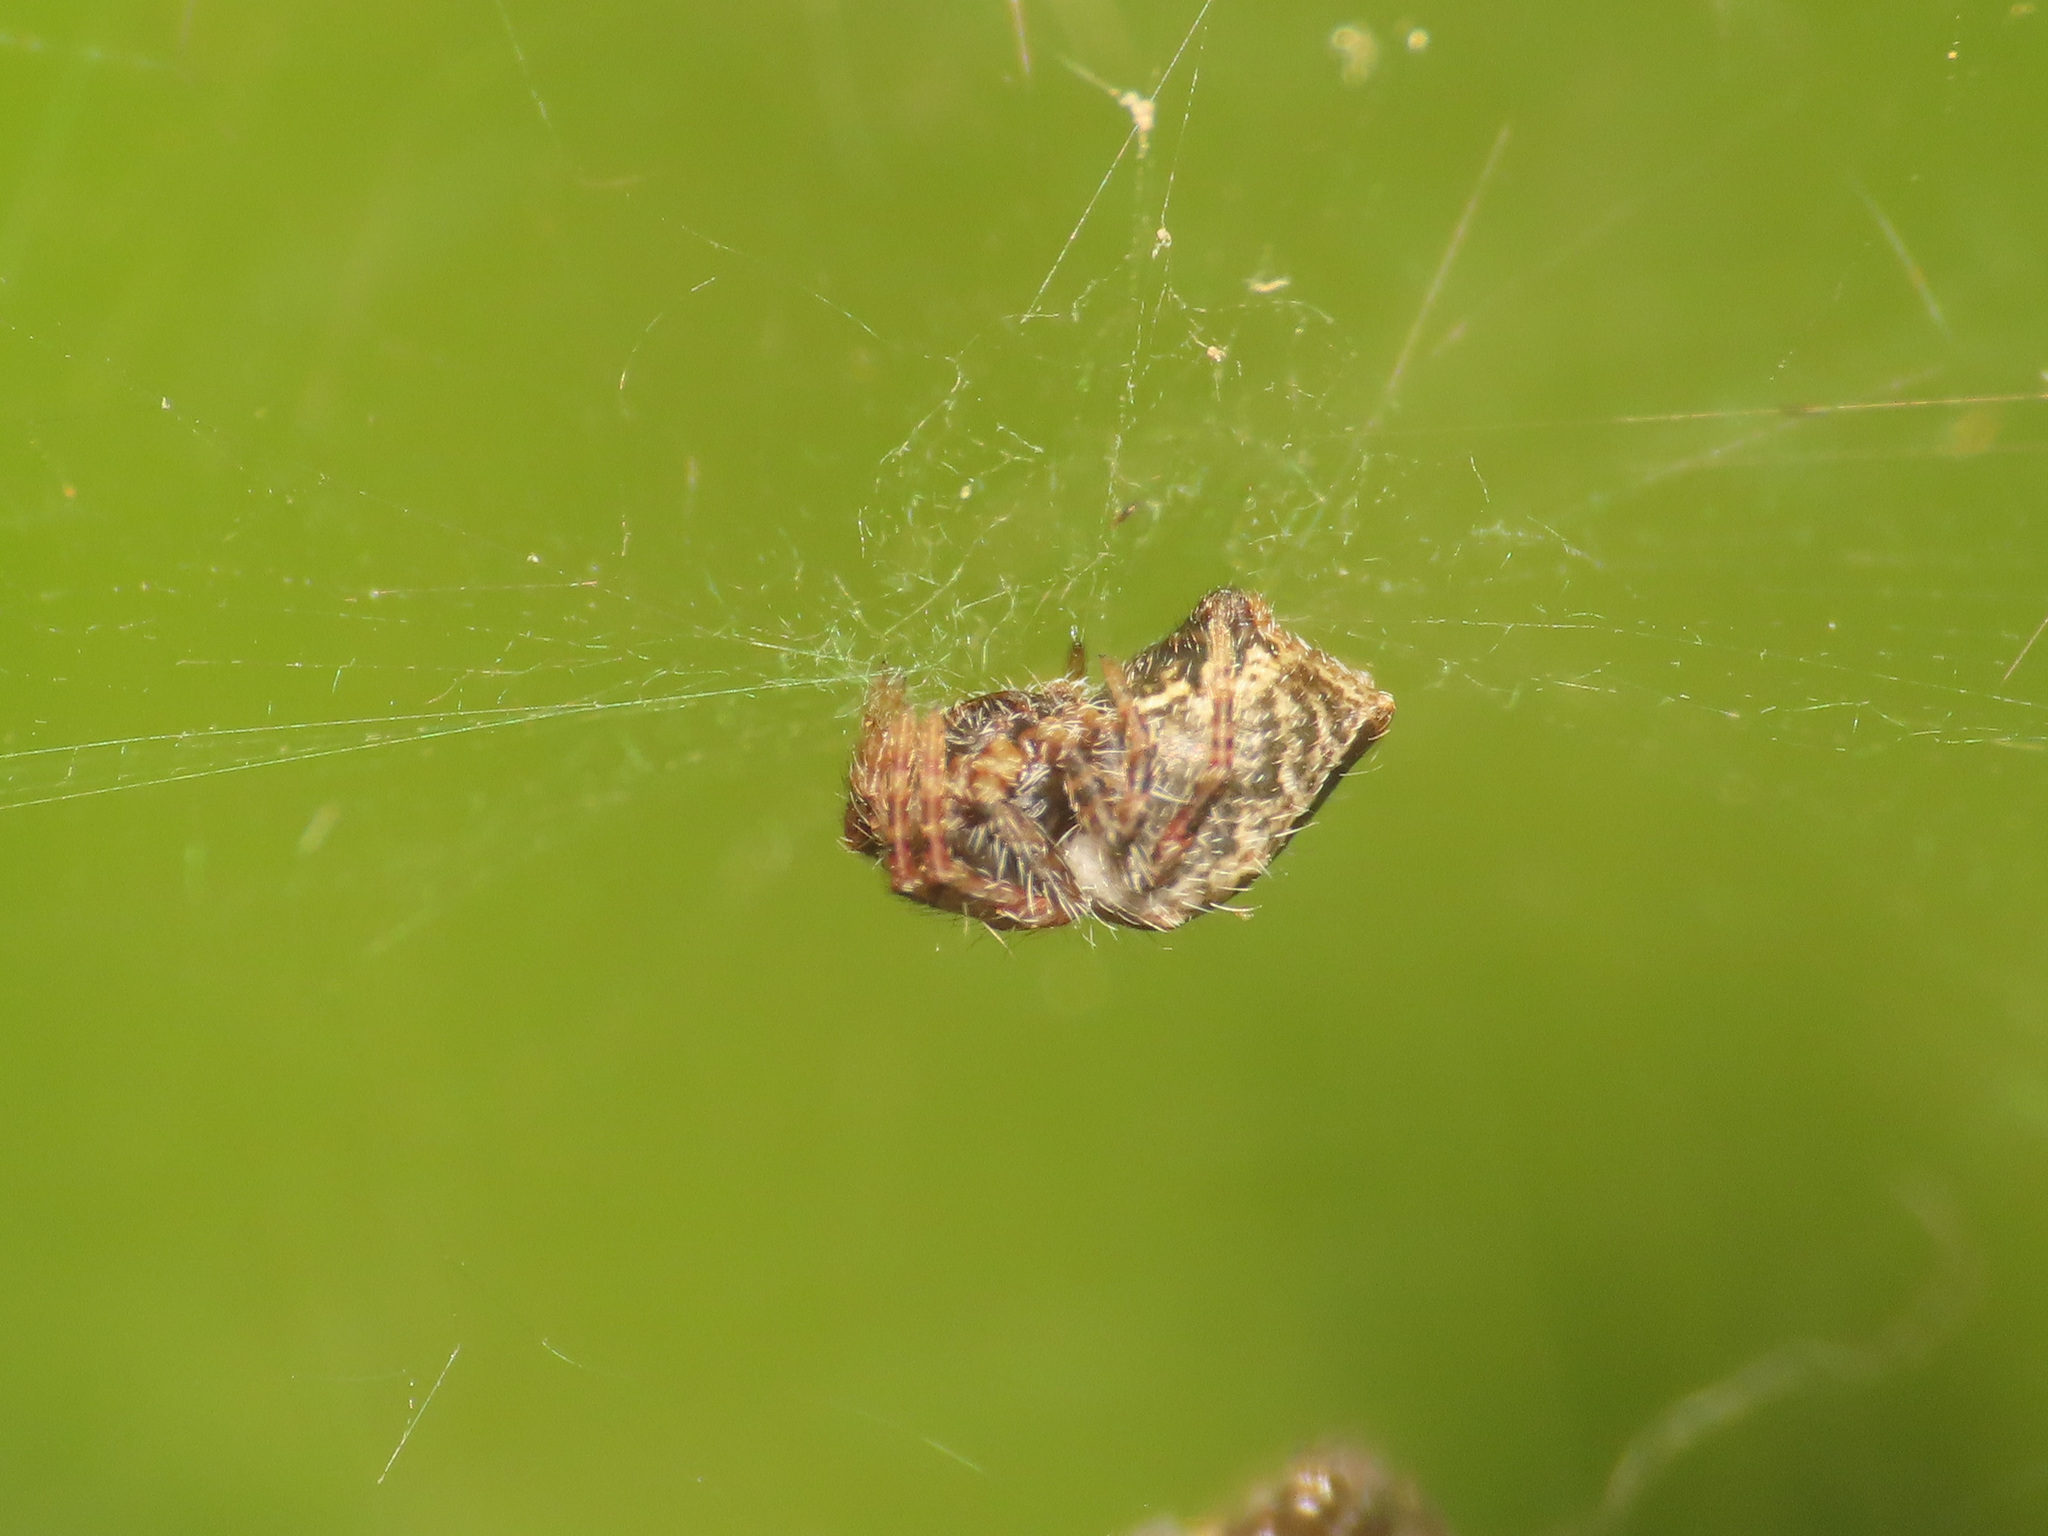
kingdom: Animalia
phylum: Arthropoda
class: Arachnida
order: Araneae
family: Araneidae
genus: Cyrtophora
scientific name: Cyrtophora citricola
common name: Orb weavers
